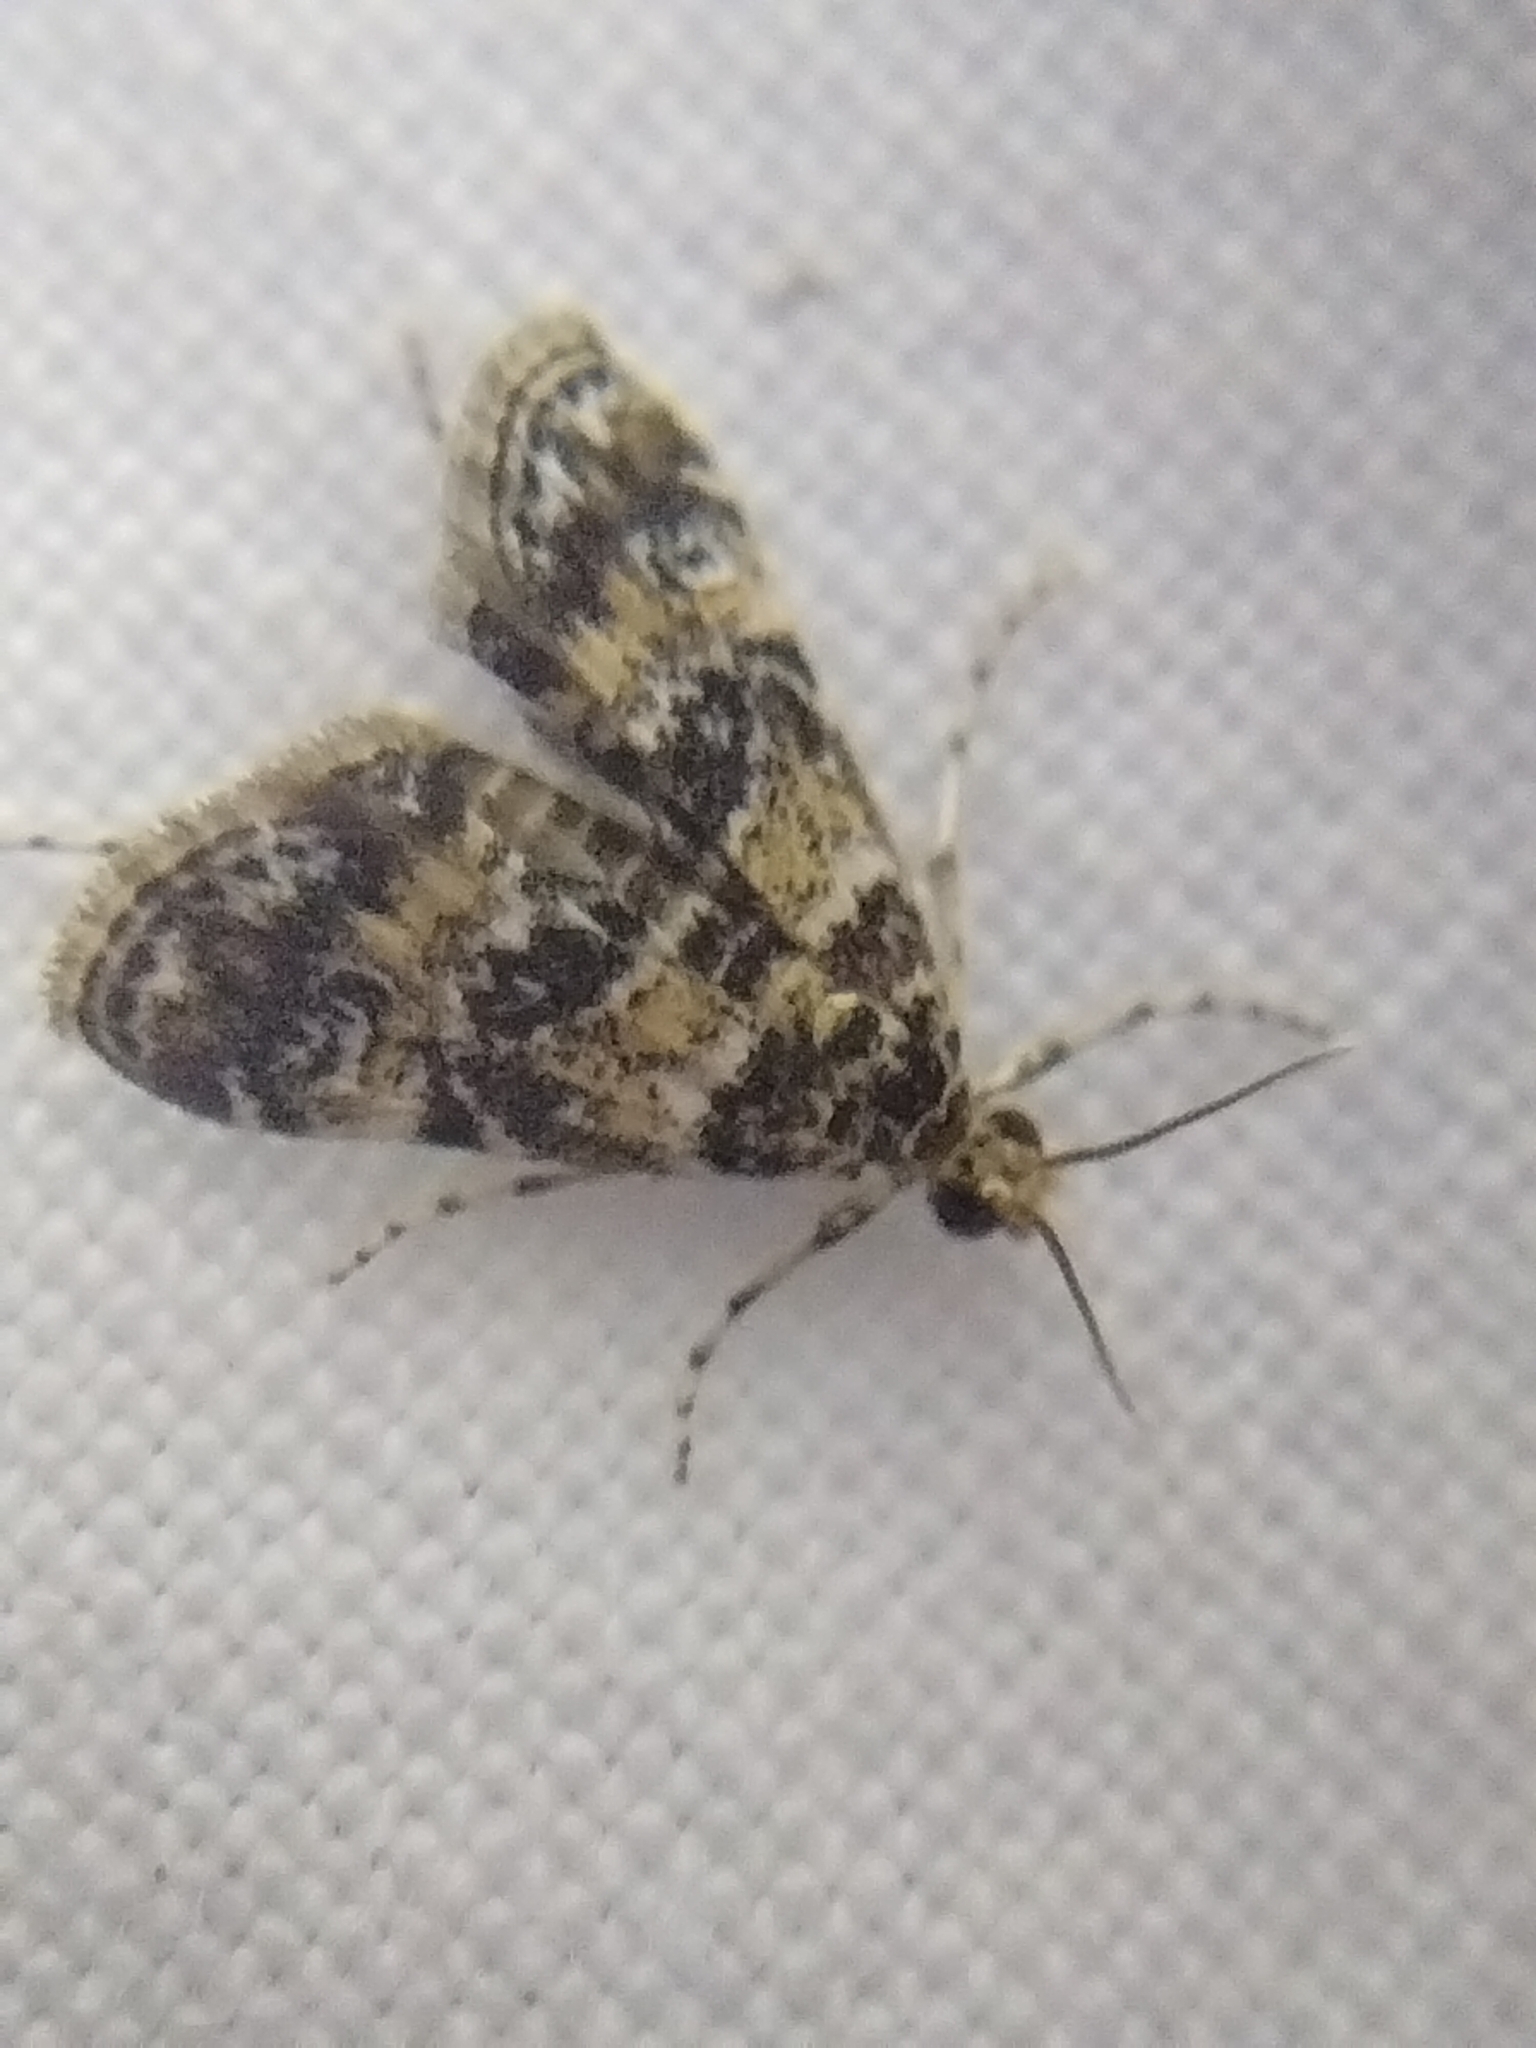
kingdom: Animalia
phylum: Arthropoda
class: Insecta
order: Lepidoptera
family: Crambidae
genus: Elophila
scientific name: Elophila obliteralis
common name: Waterlily leafcutter moth
